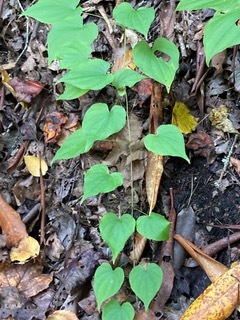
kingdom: Plantae
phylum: Tracheophyta
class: Liliopsida
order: Dioscoreales
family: Dioscoreaceae
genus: Dioscorea
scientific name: Dioscorea villosa
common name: Wild yam
